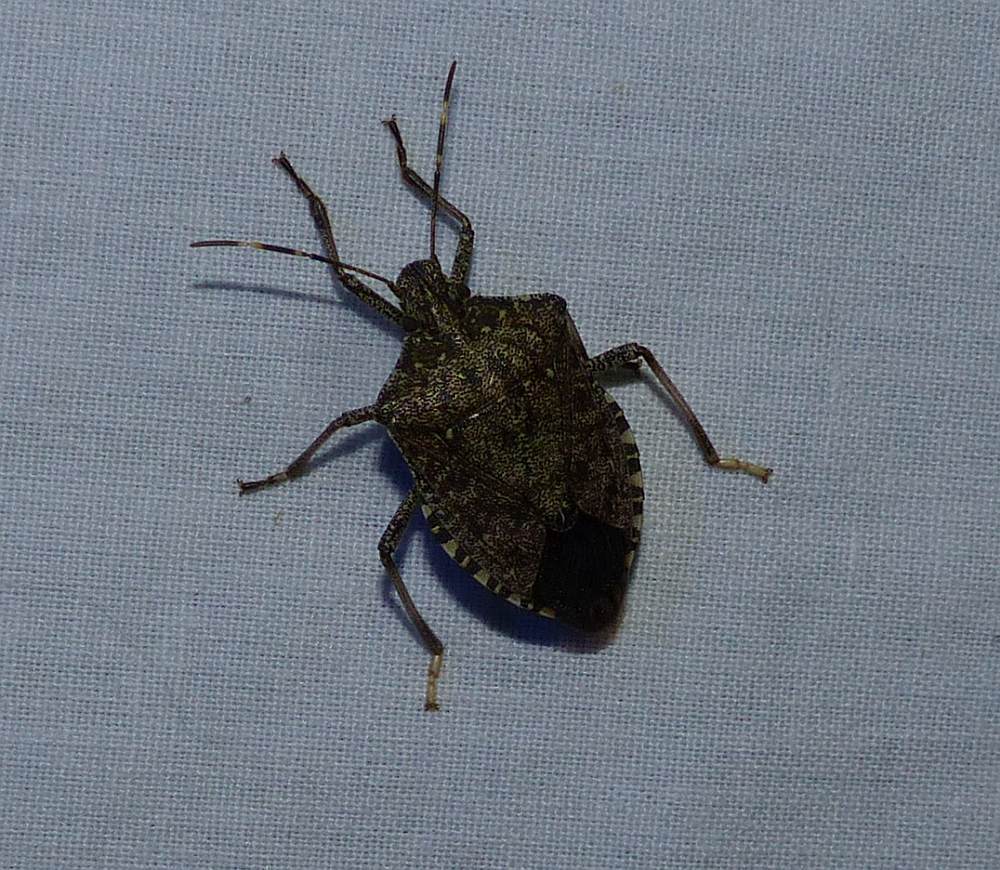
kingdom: Animalia
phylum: Arthropoda
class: Insecta
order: Hemiptera
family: Pentatomidae
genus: Halyomorpha
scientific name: Halyomorpha halys
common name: Brown marmorated stink bug
